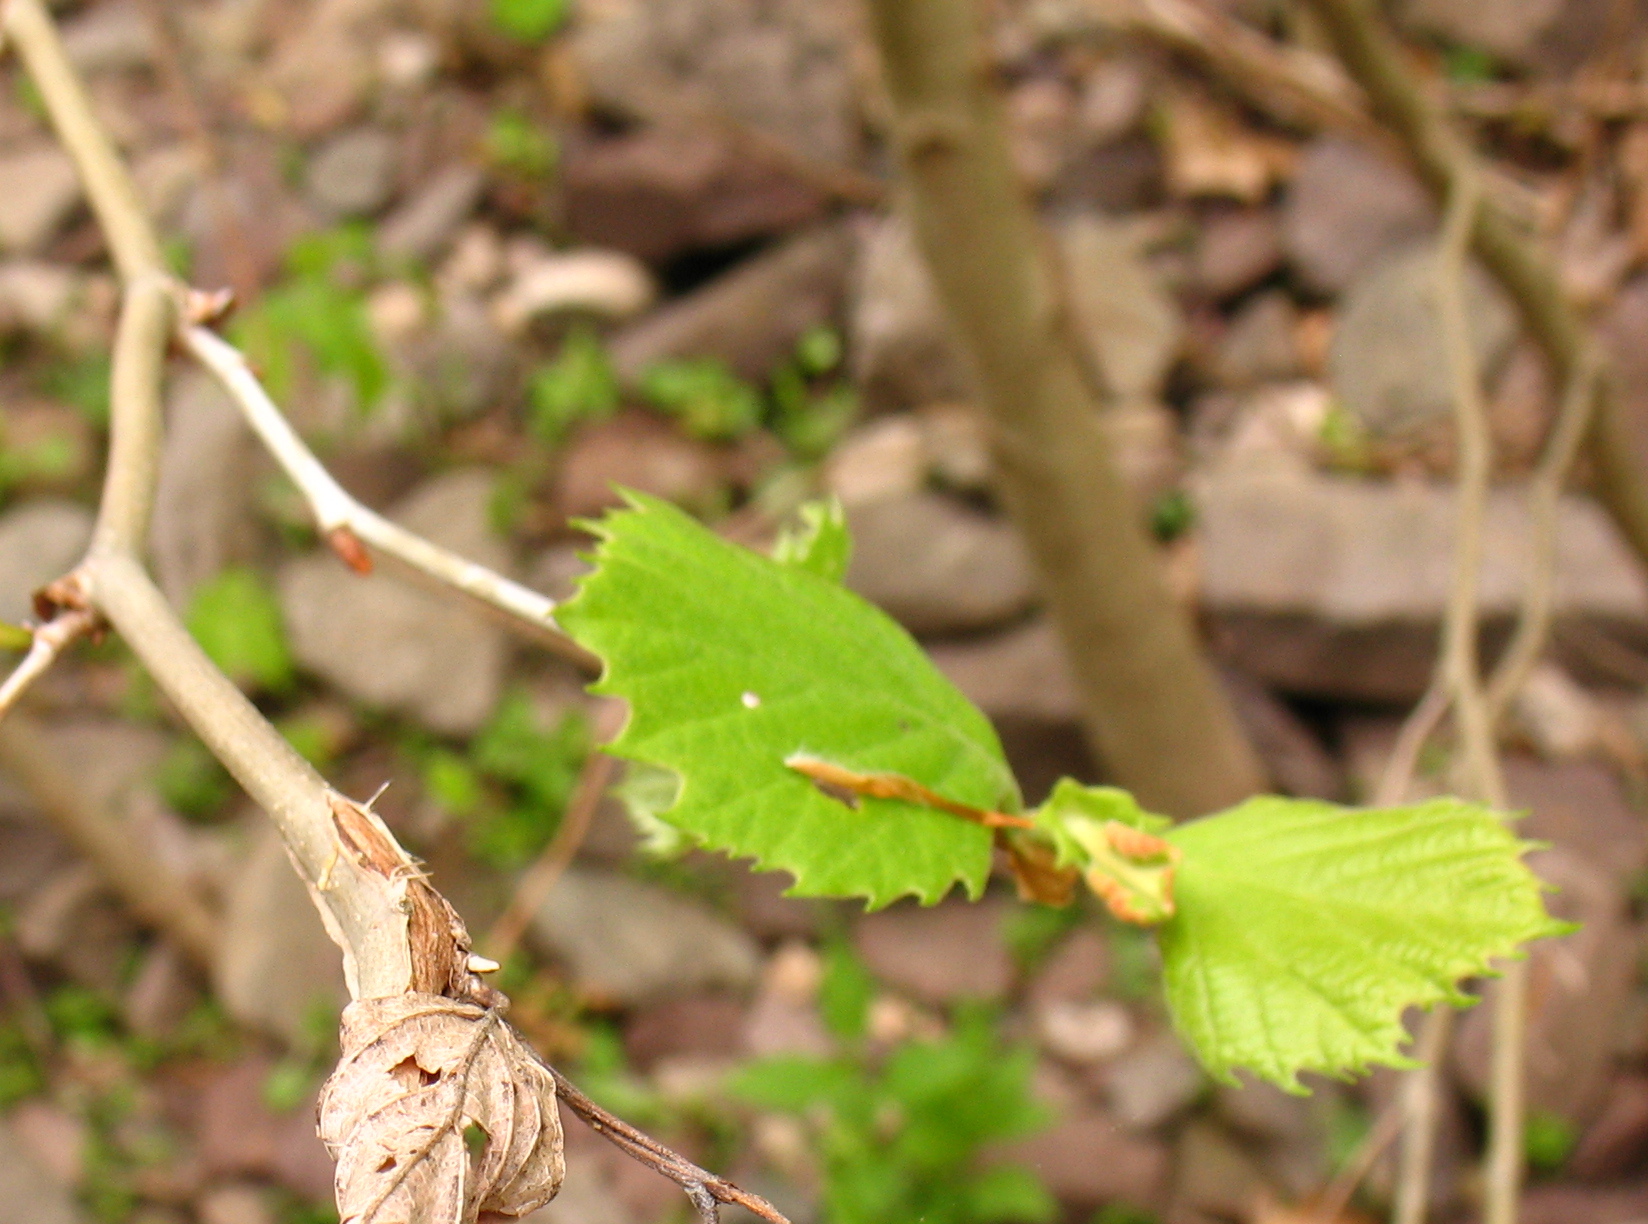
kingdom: Plantae
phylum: Tracheophyta
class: Magnoliopsida
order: Proteales
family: Platanaceae
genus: Platanus
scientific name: Platanus occidentalis
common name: American sycamore
